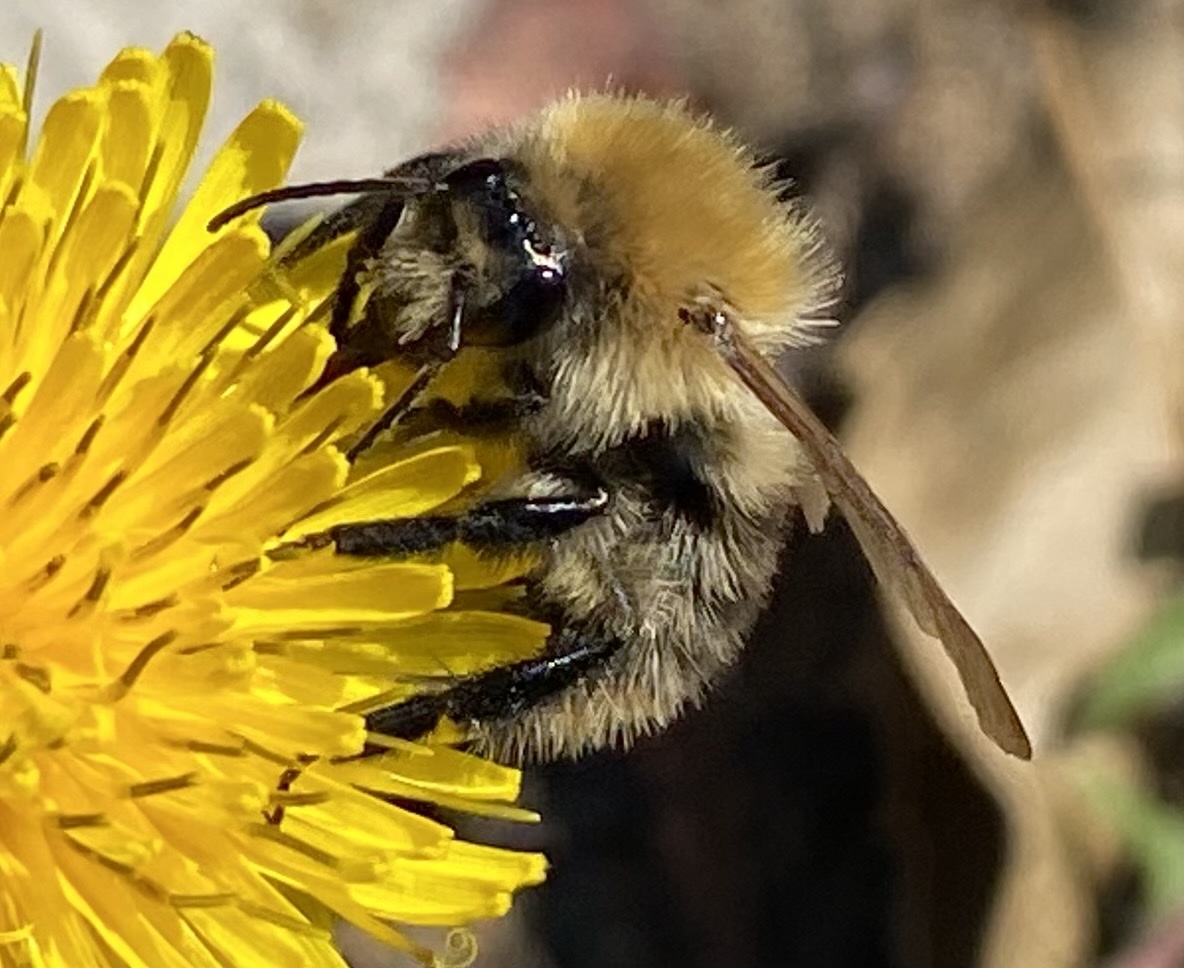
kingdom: Animalia
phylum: Arthropoda
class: Insecta
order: Hymenoptera
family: Apidae
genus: Bombus
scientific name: Bombus pascuorum
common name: Common carder bee
